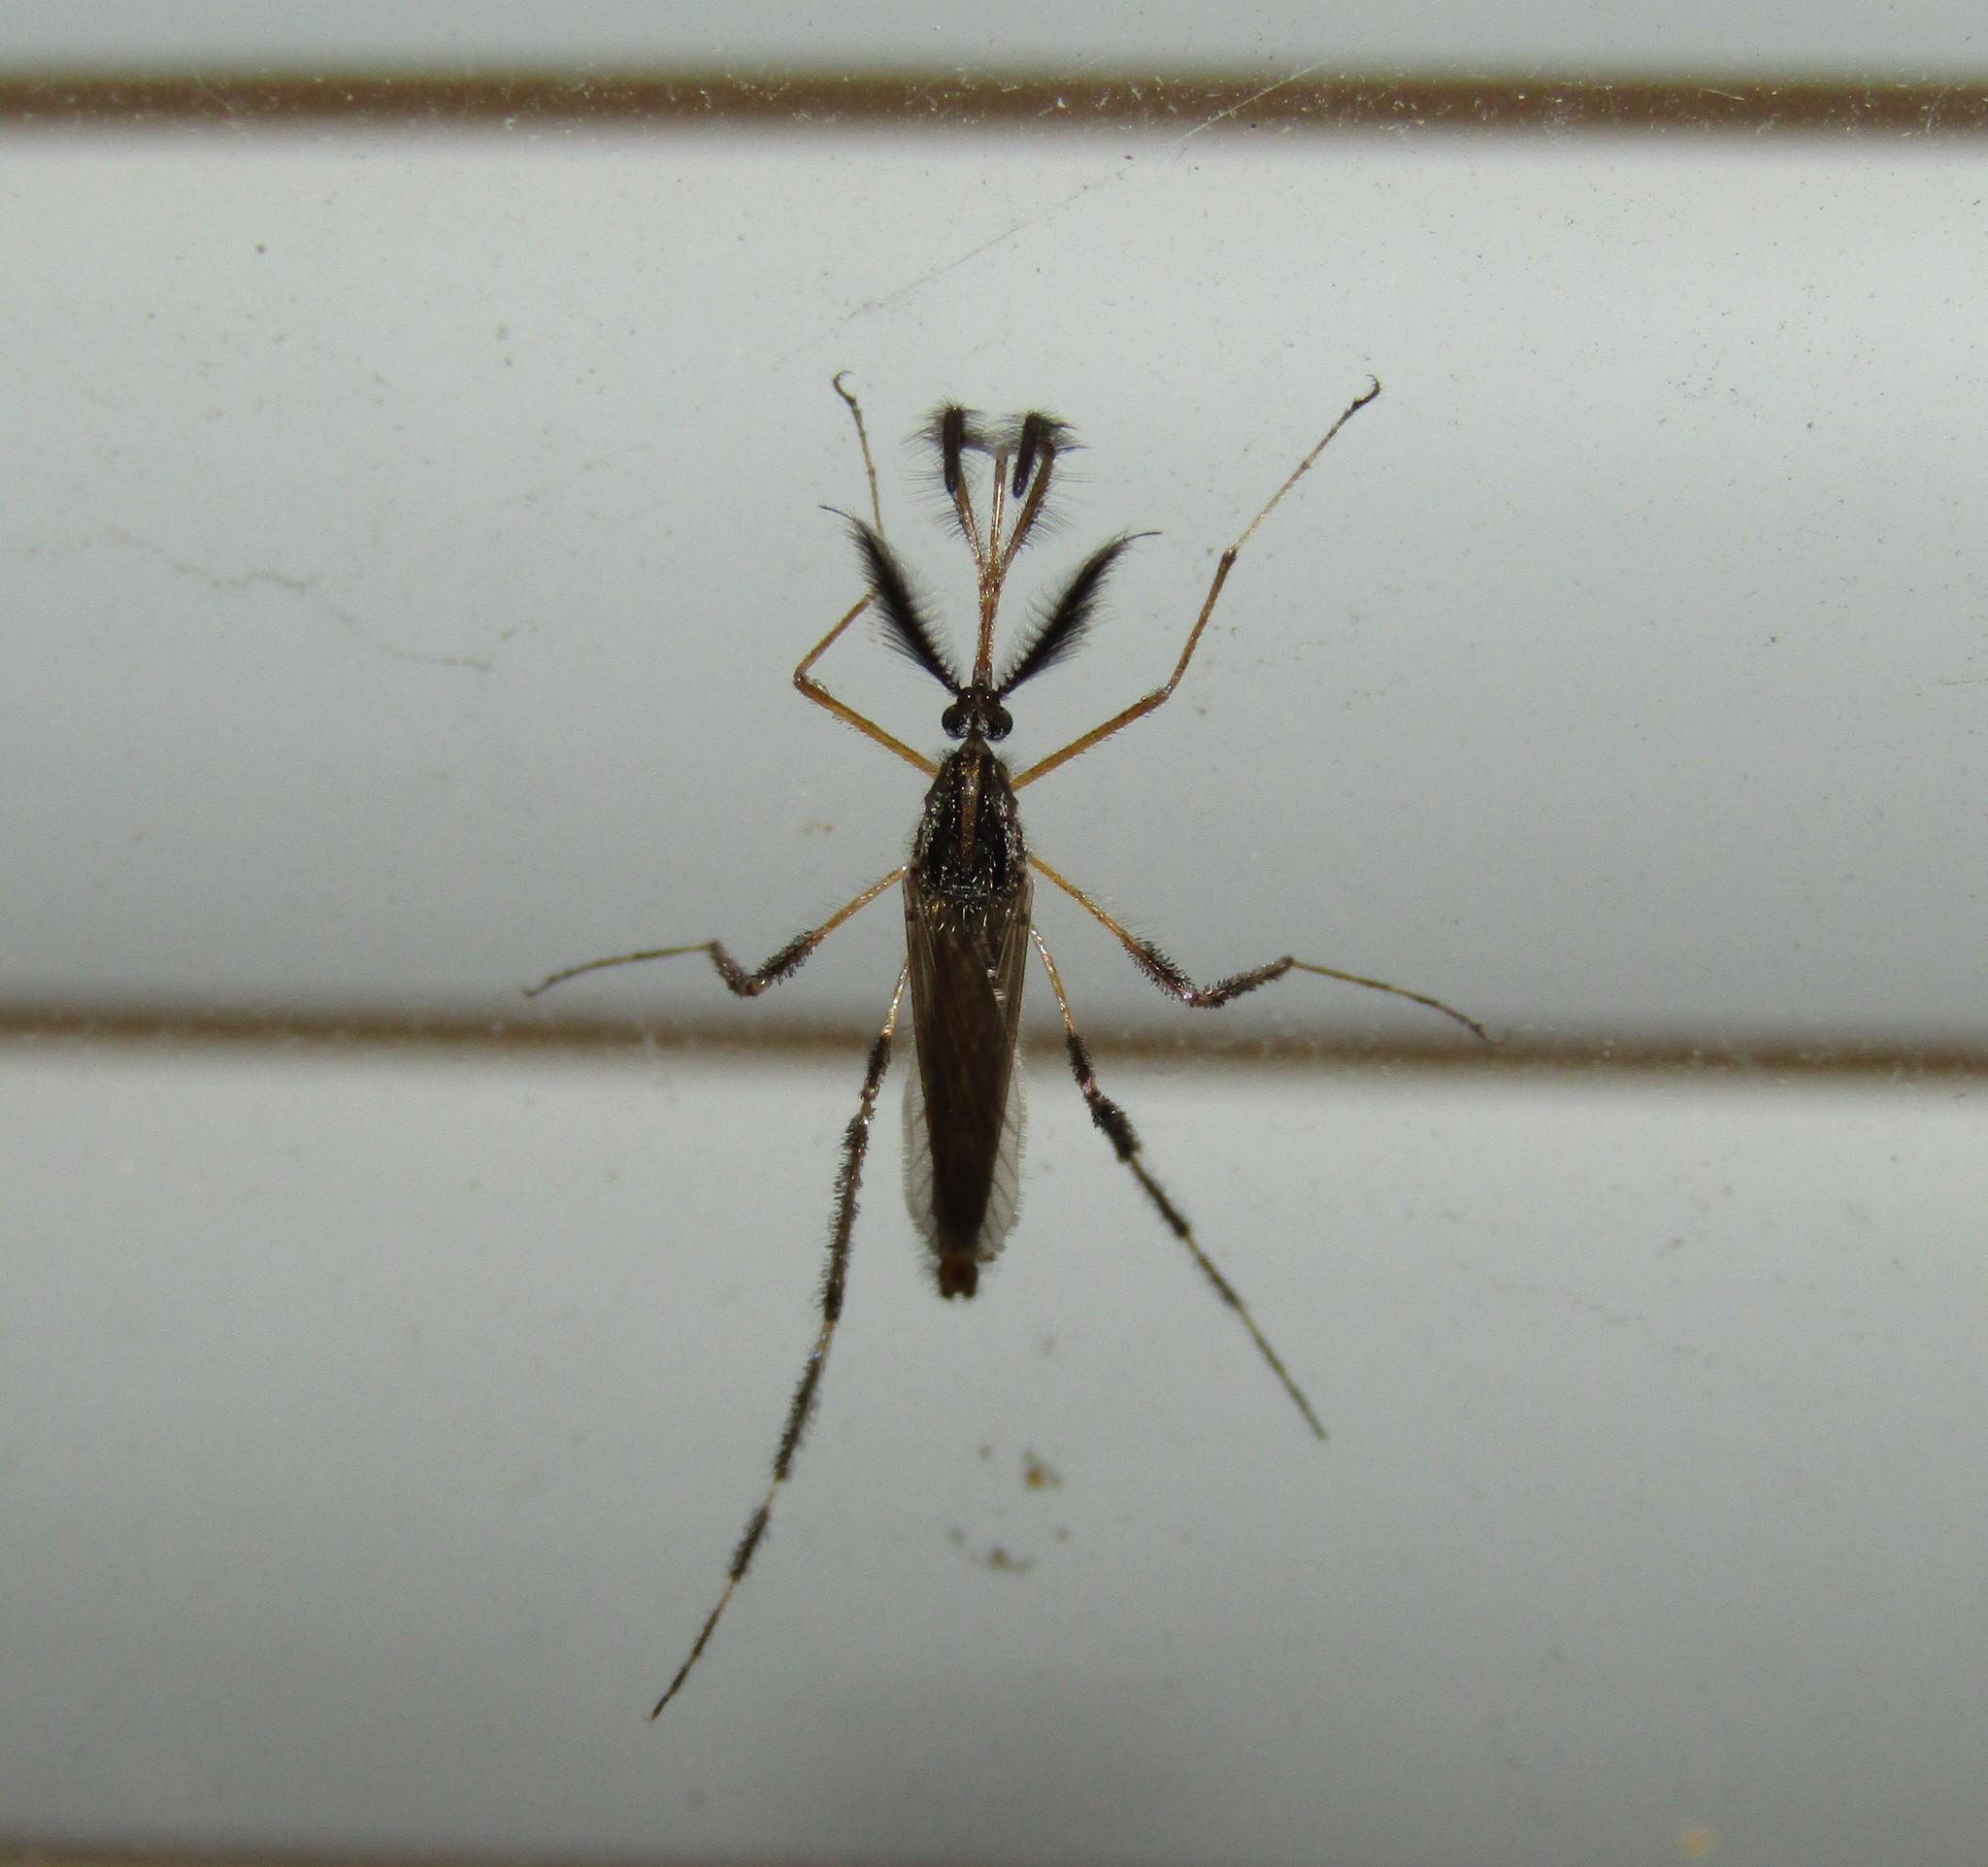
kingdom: Animalia
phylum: Arthropoda
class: Insecta
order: Diptera
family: Culicidae
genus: Psorophora
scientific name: Psorophora ciliata
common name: Gallinipper
